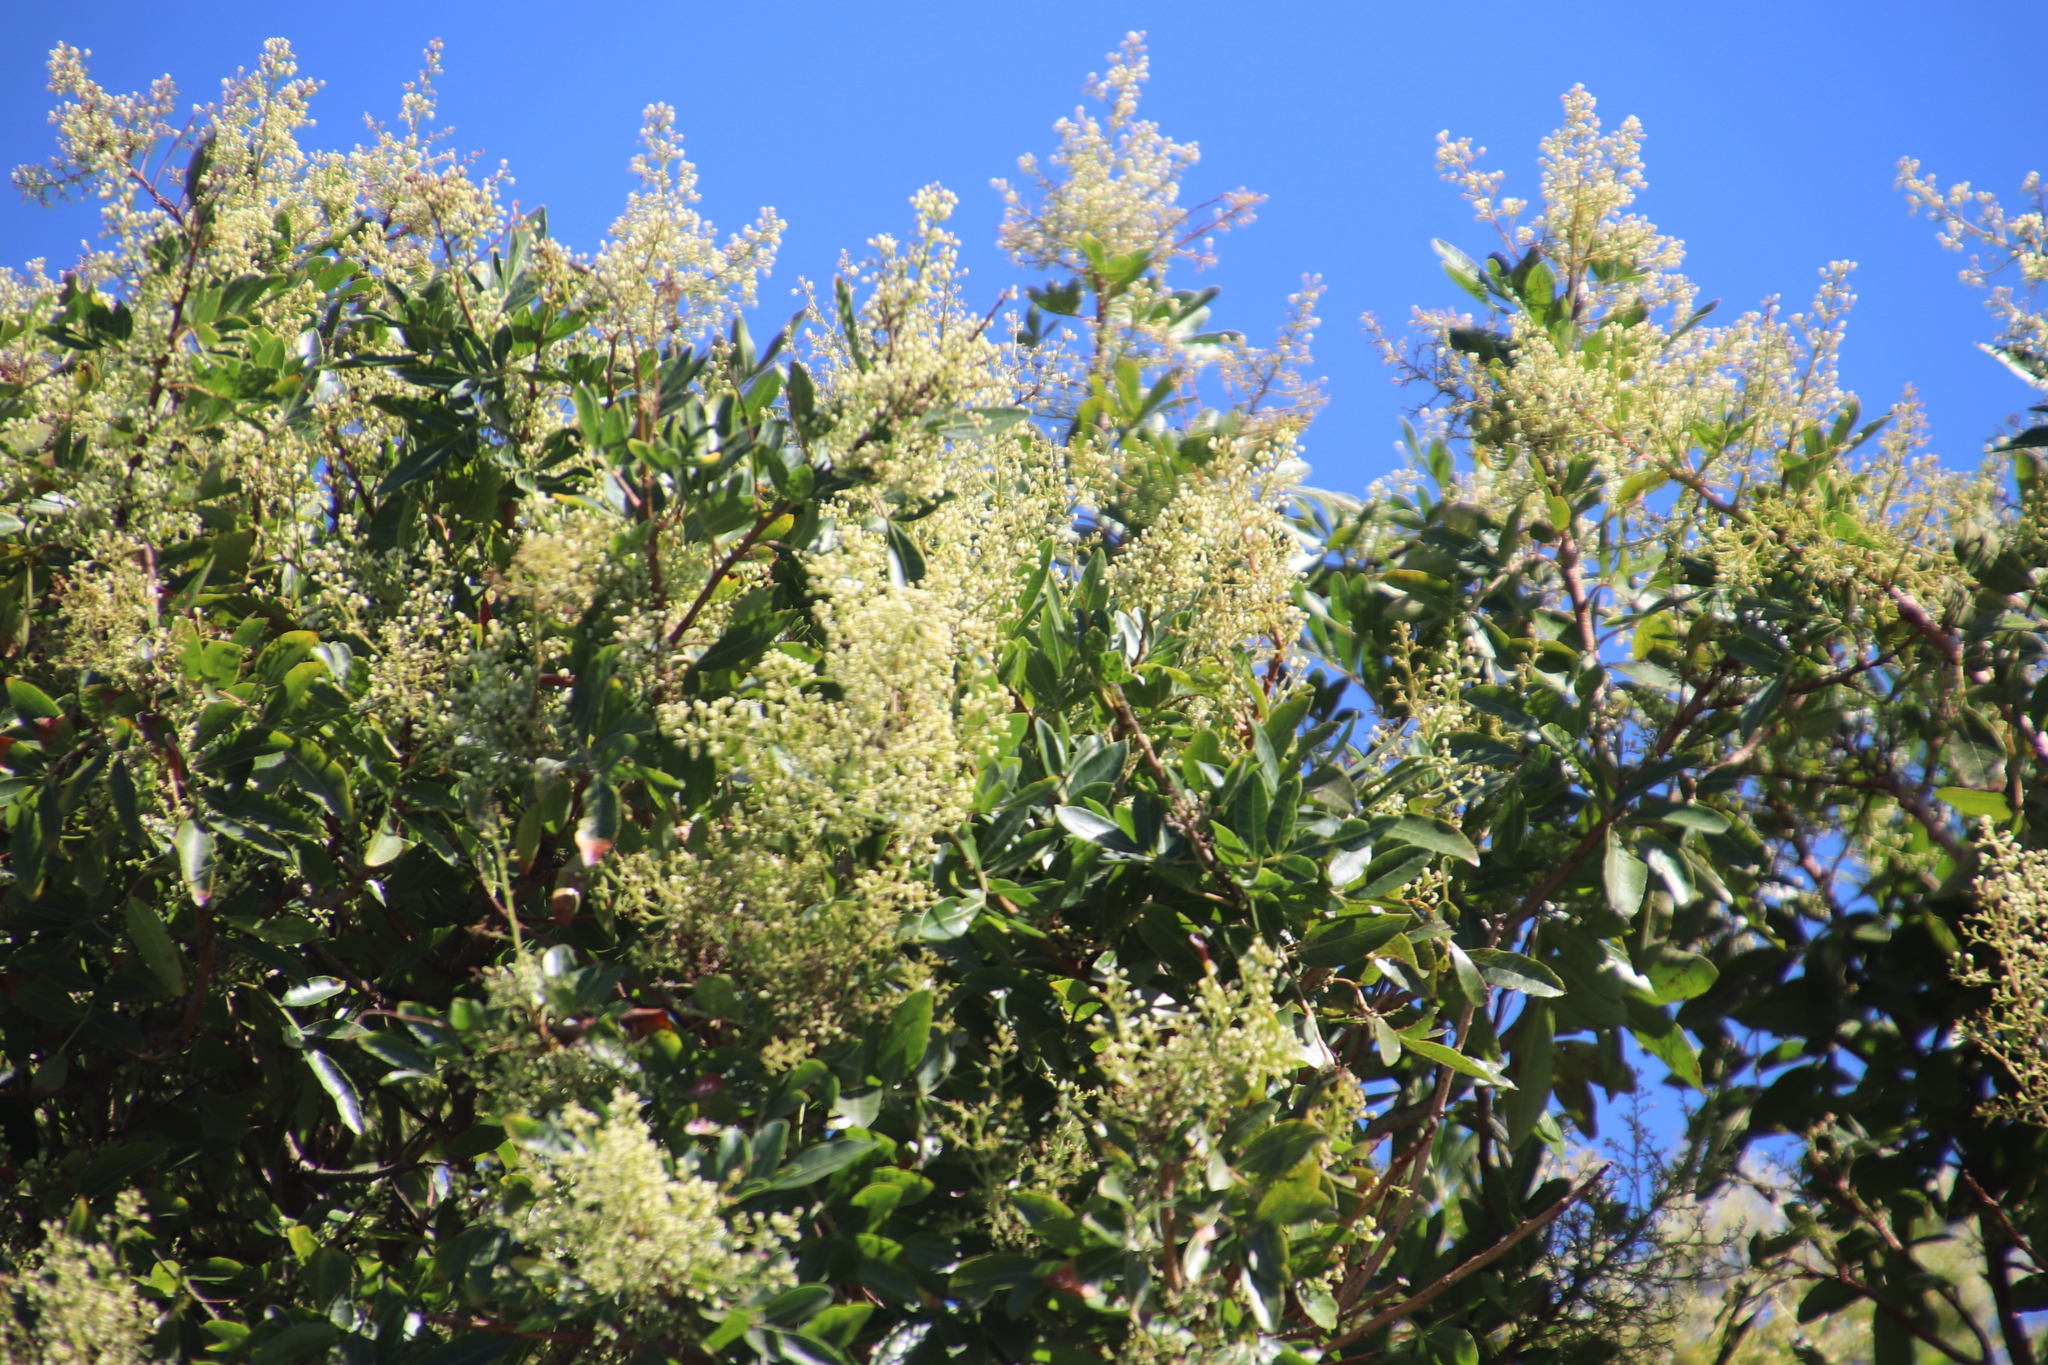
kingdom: Plantae
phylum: Tracheophyta
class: Magnoliopsida
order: Sapindales
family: Anacardiaceae
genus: Schinus
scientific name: Schinus terebinthifolia
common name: Brazilian peppertree
